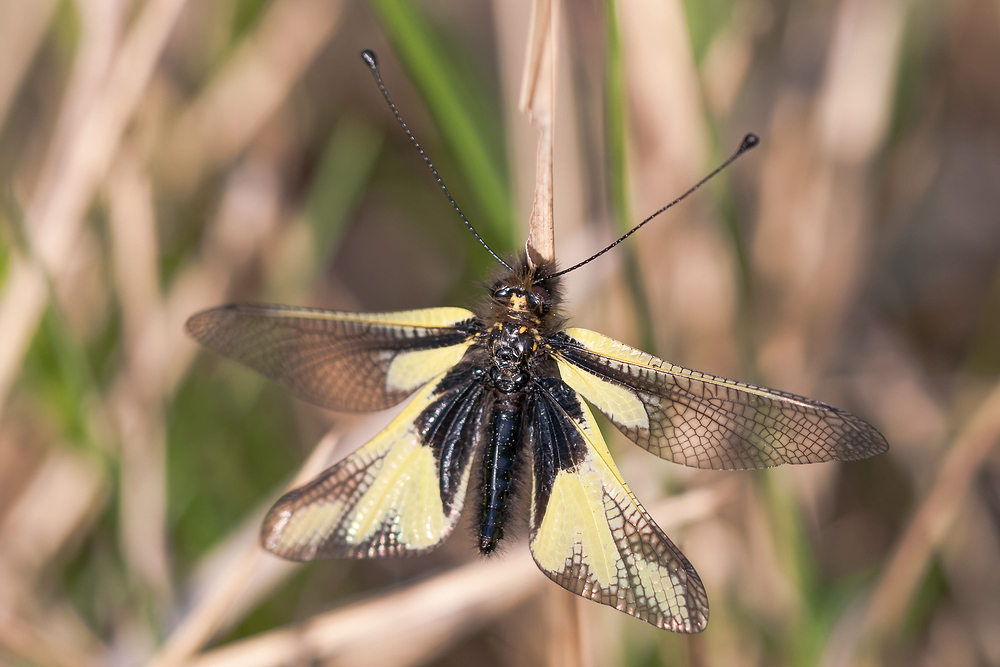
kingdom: Animalia
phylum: Arthropoda
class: Insecta
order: Neuroptera
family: Ascalaphidae
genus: Libelloides
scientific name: Libelloides coccajus
